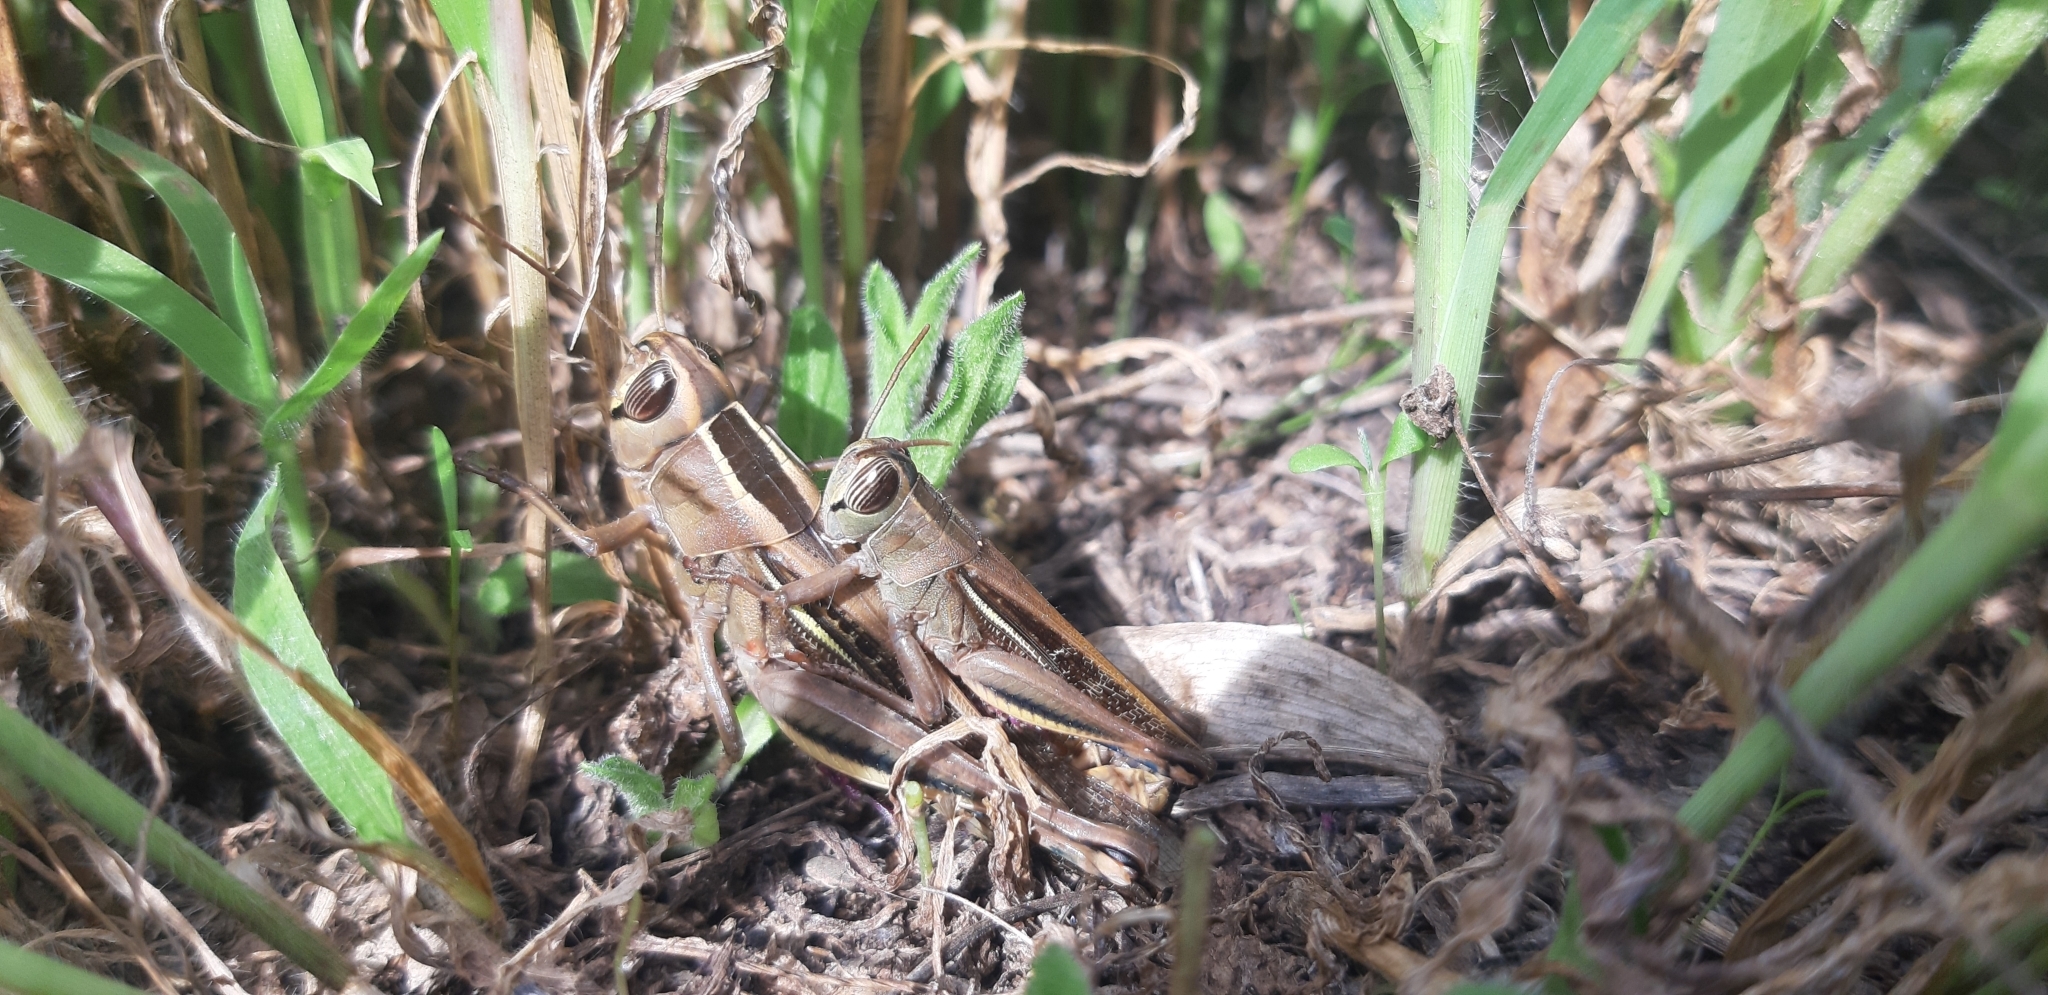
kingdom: Animalia
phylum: Arthropoda
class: Insecta
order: Orthoptera
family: Acrididae
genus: Eyprepocnemis
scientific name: Eyprepocnemis plorans
